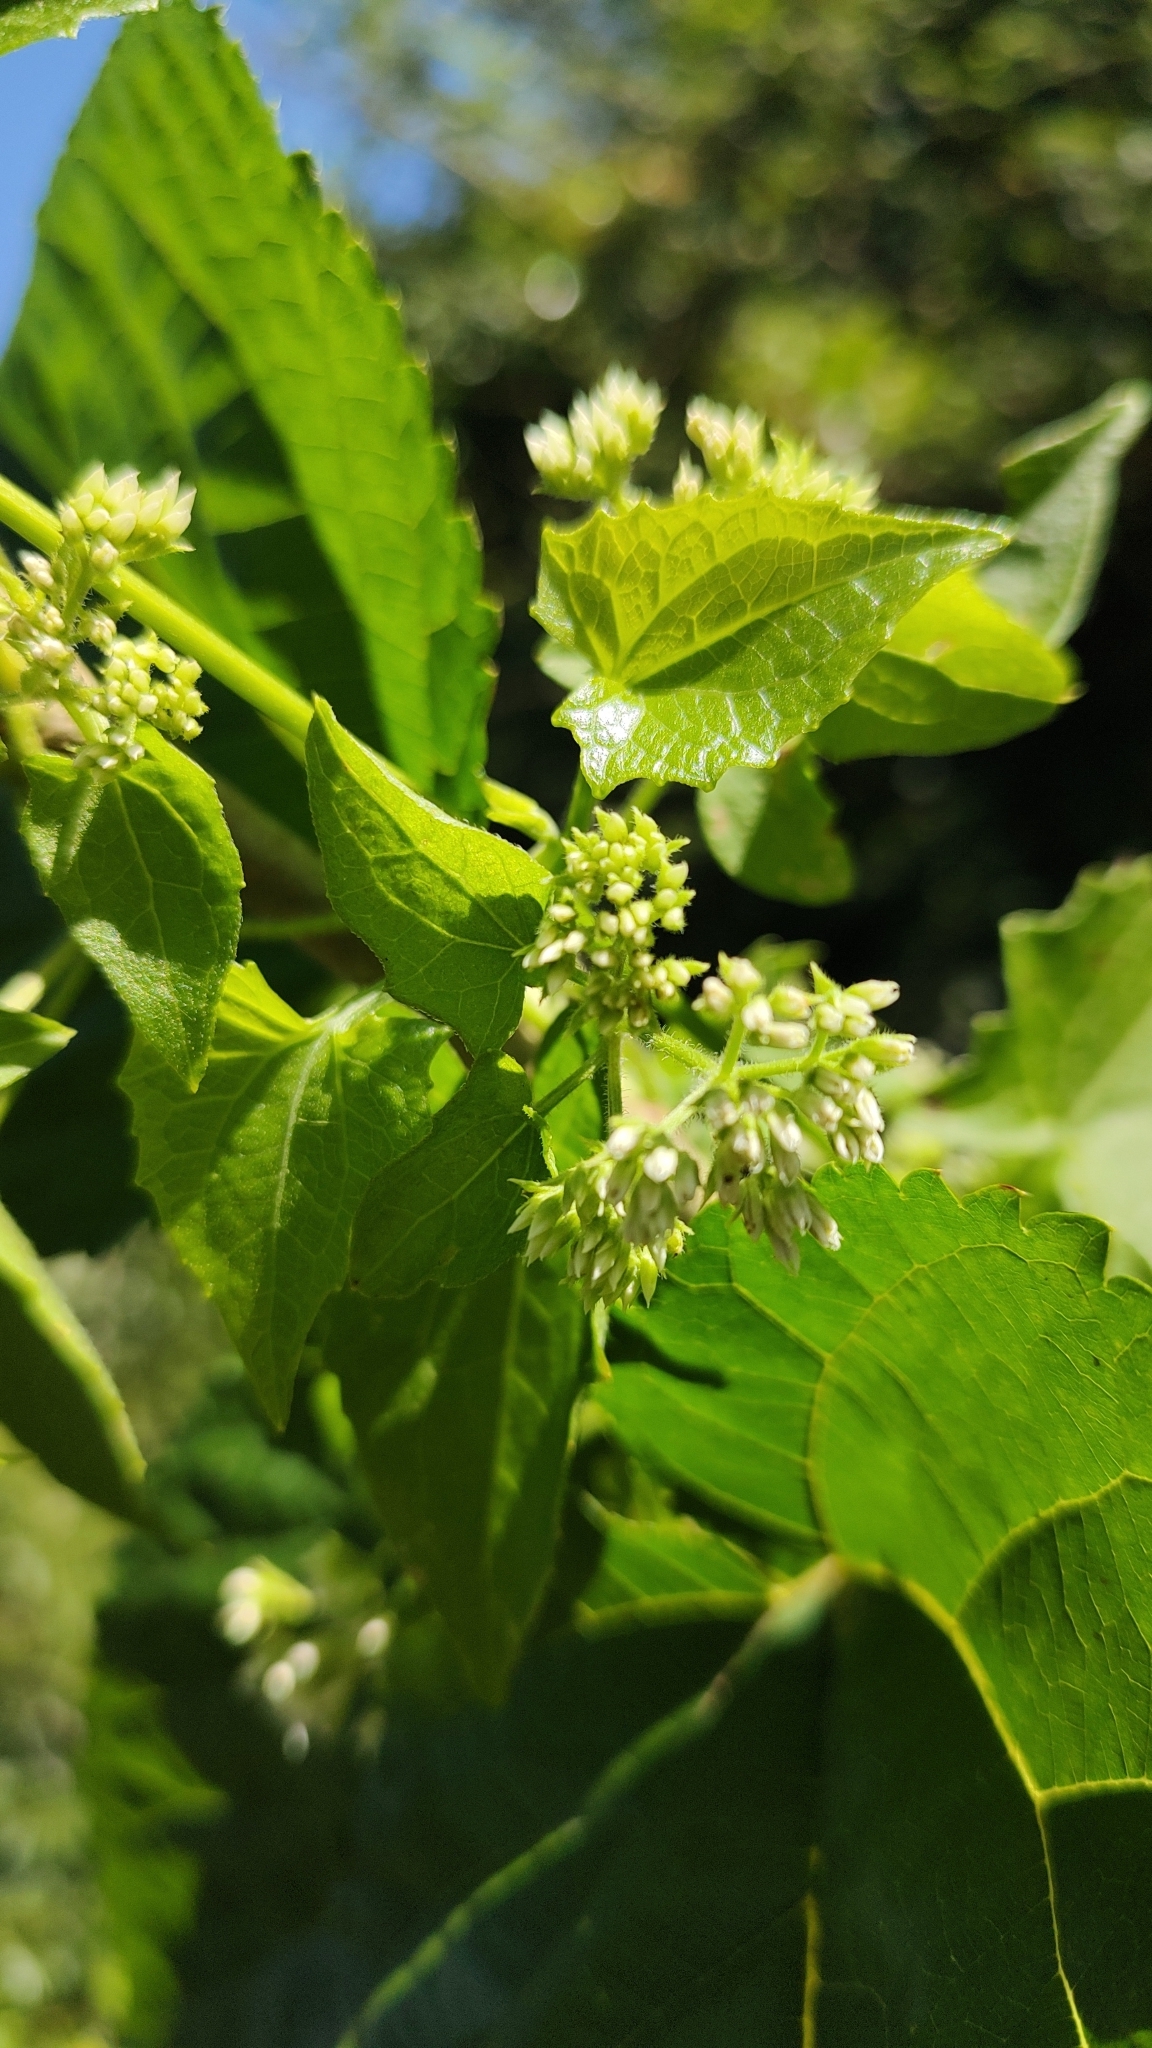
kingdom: Plantae
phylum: Tracheophyta
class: Magnoliopsida
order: Asterales
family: Asteraceae
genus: Mikania
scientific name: Mikania micrantha
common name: Mile-a-minute
